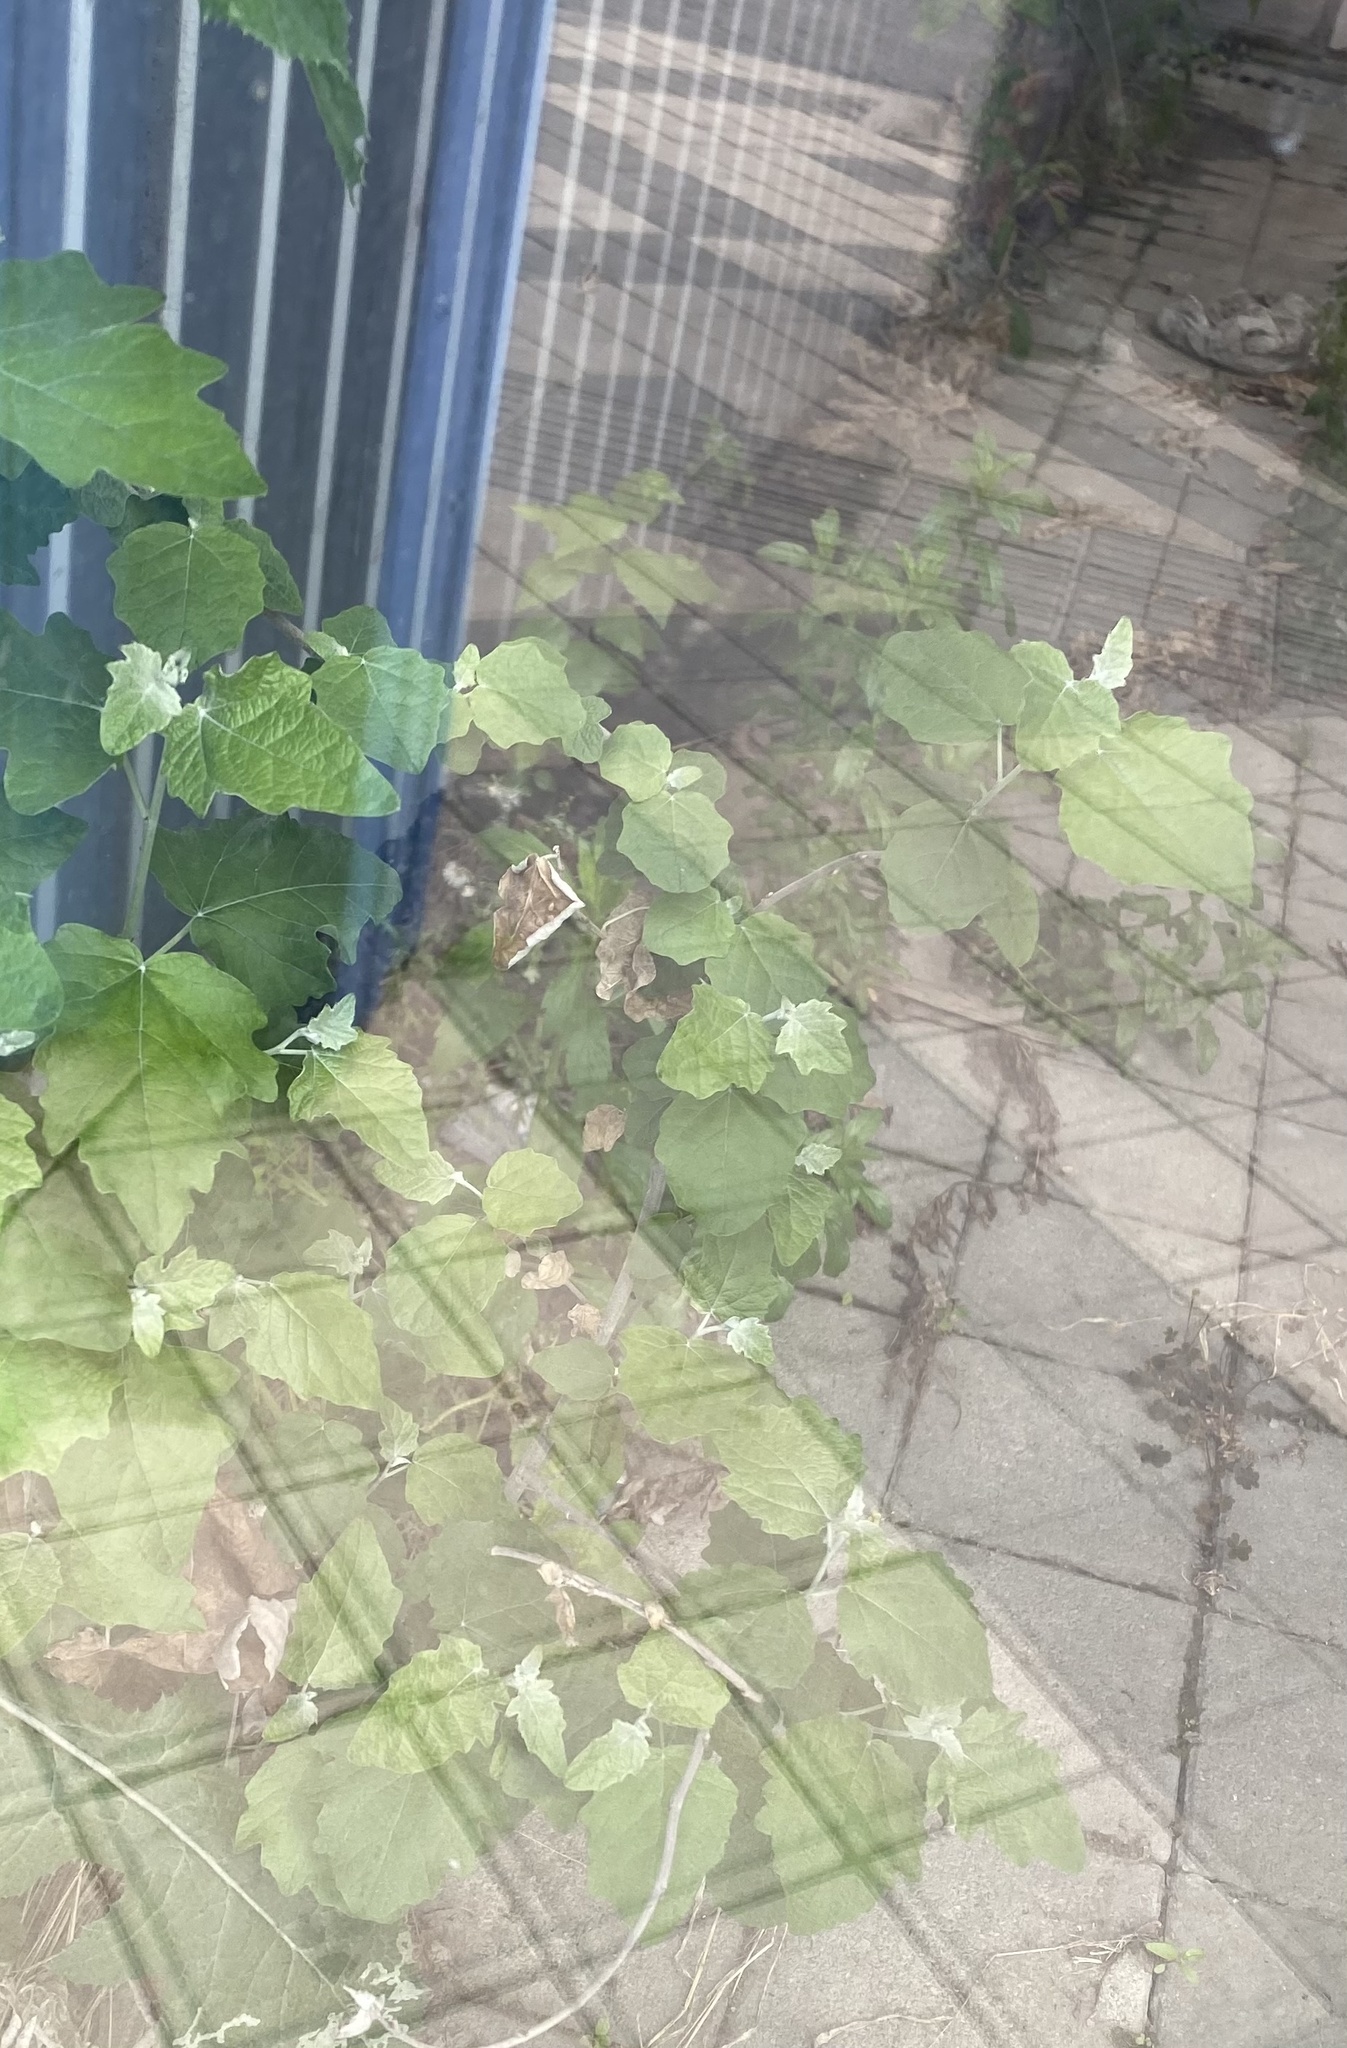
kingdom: Plantae
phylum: Tracheophyta
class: Magnoliopsida
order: Malpighiales
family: Salicaceae
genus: Populus
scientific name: Populus alba
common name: White poplar
